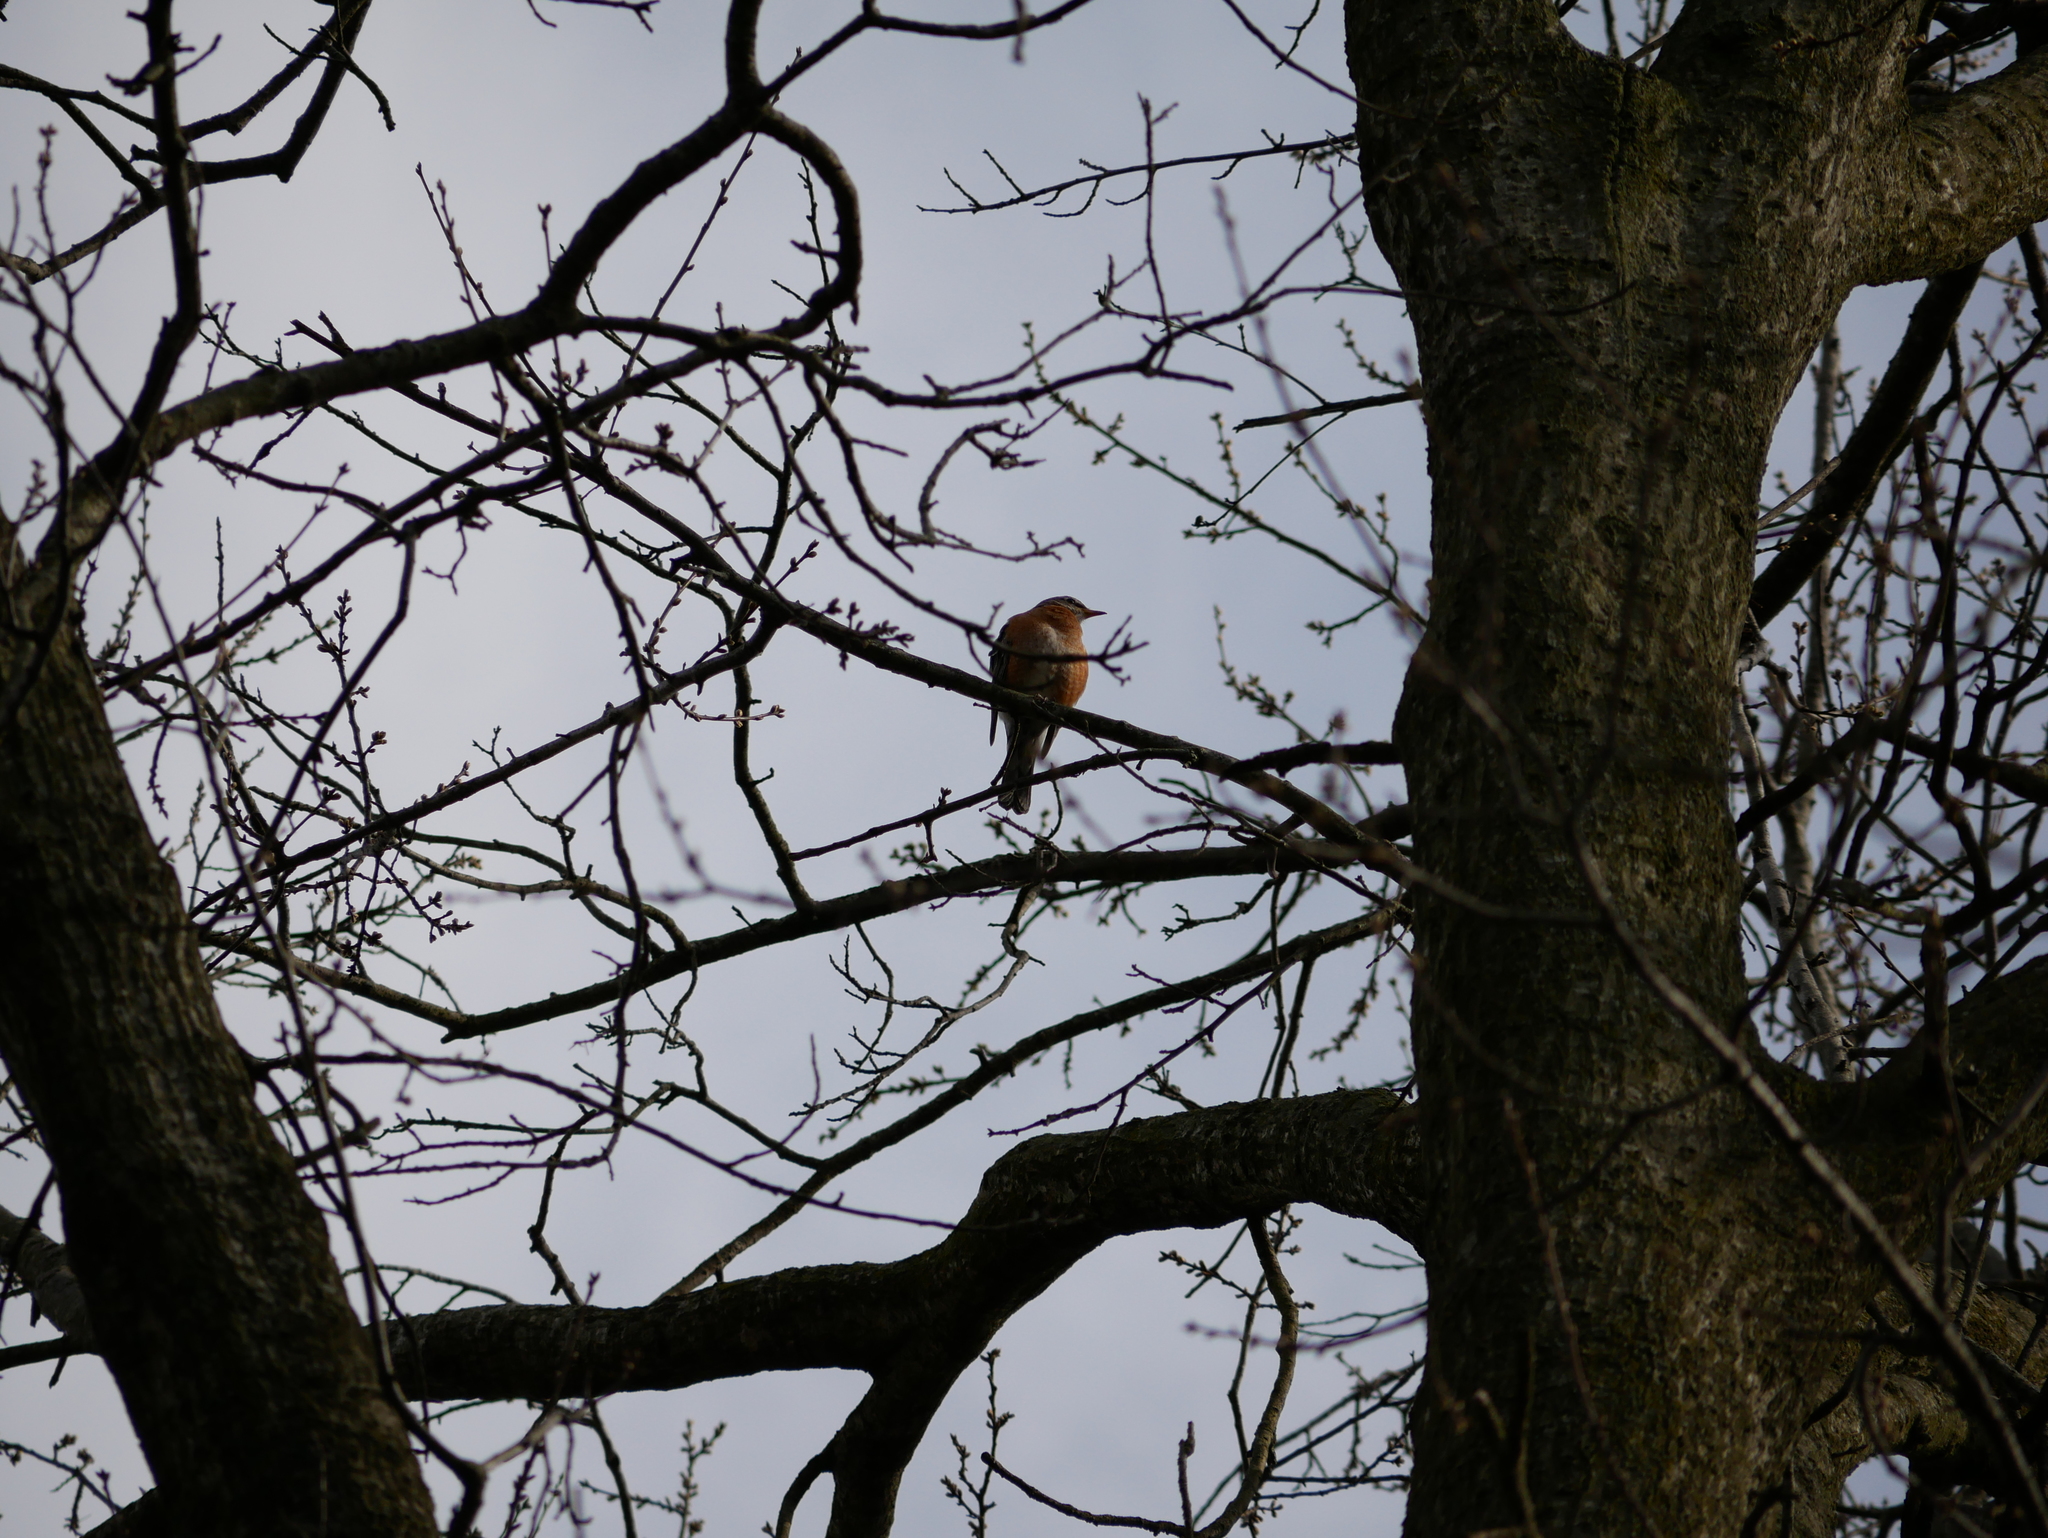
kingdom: Animalia
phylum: Chordata
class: Aves
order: Passeriformes
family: Turdidae
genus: Turdus
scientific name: Turdus migratorius
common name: American robin
